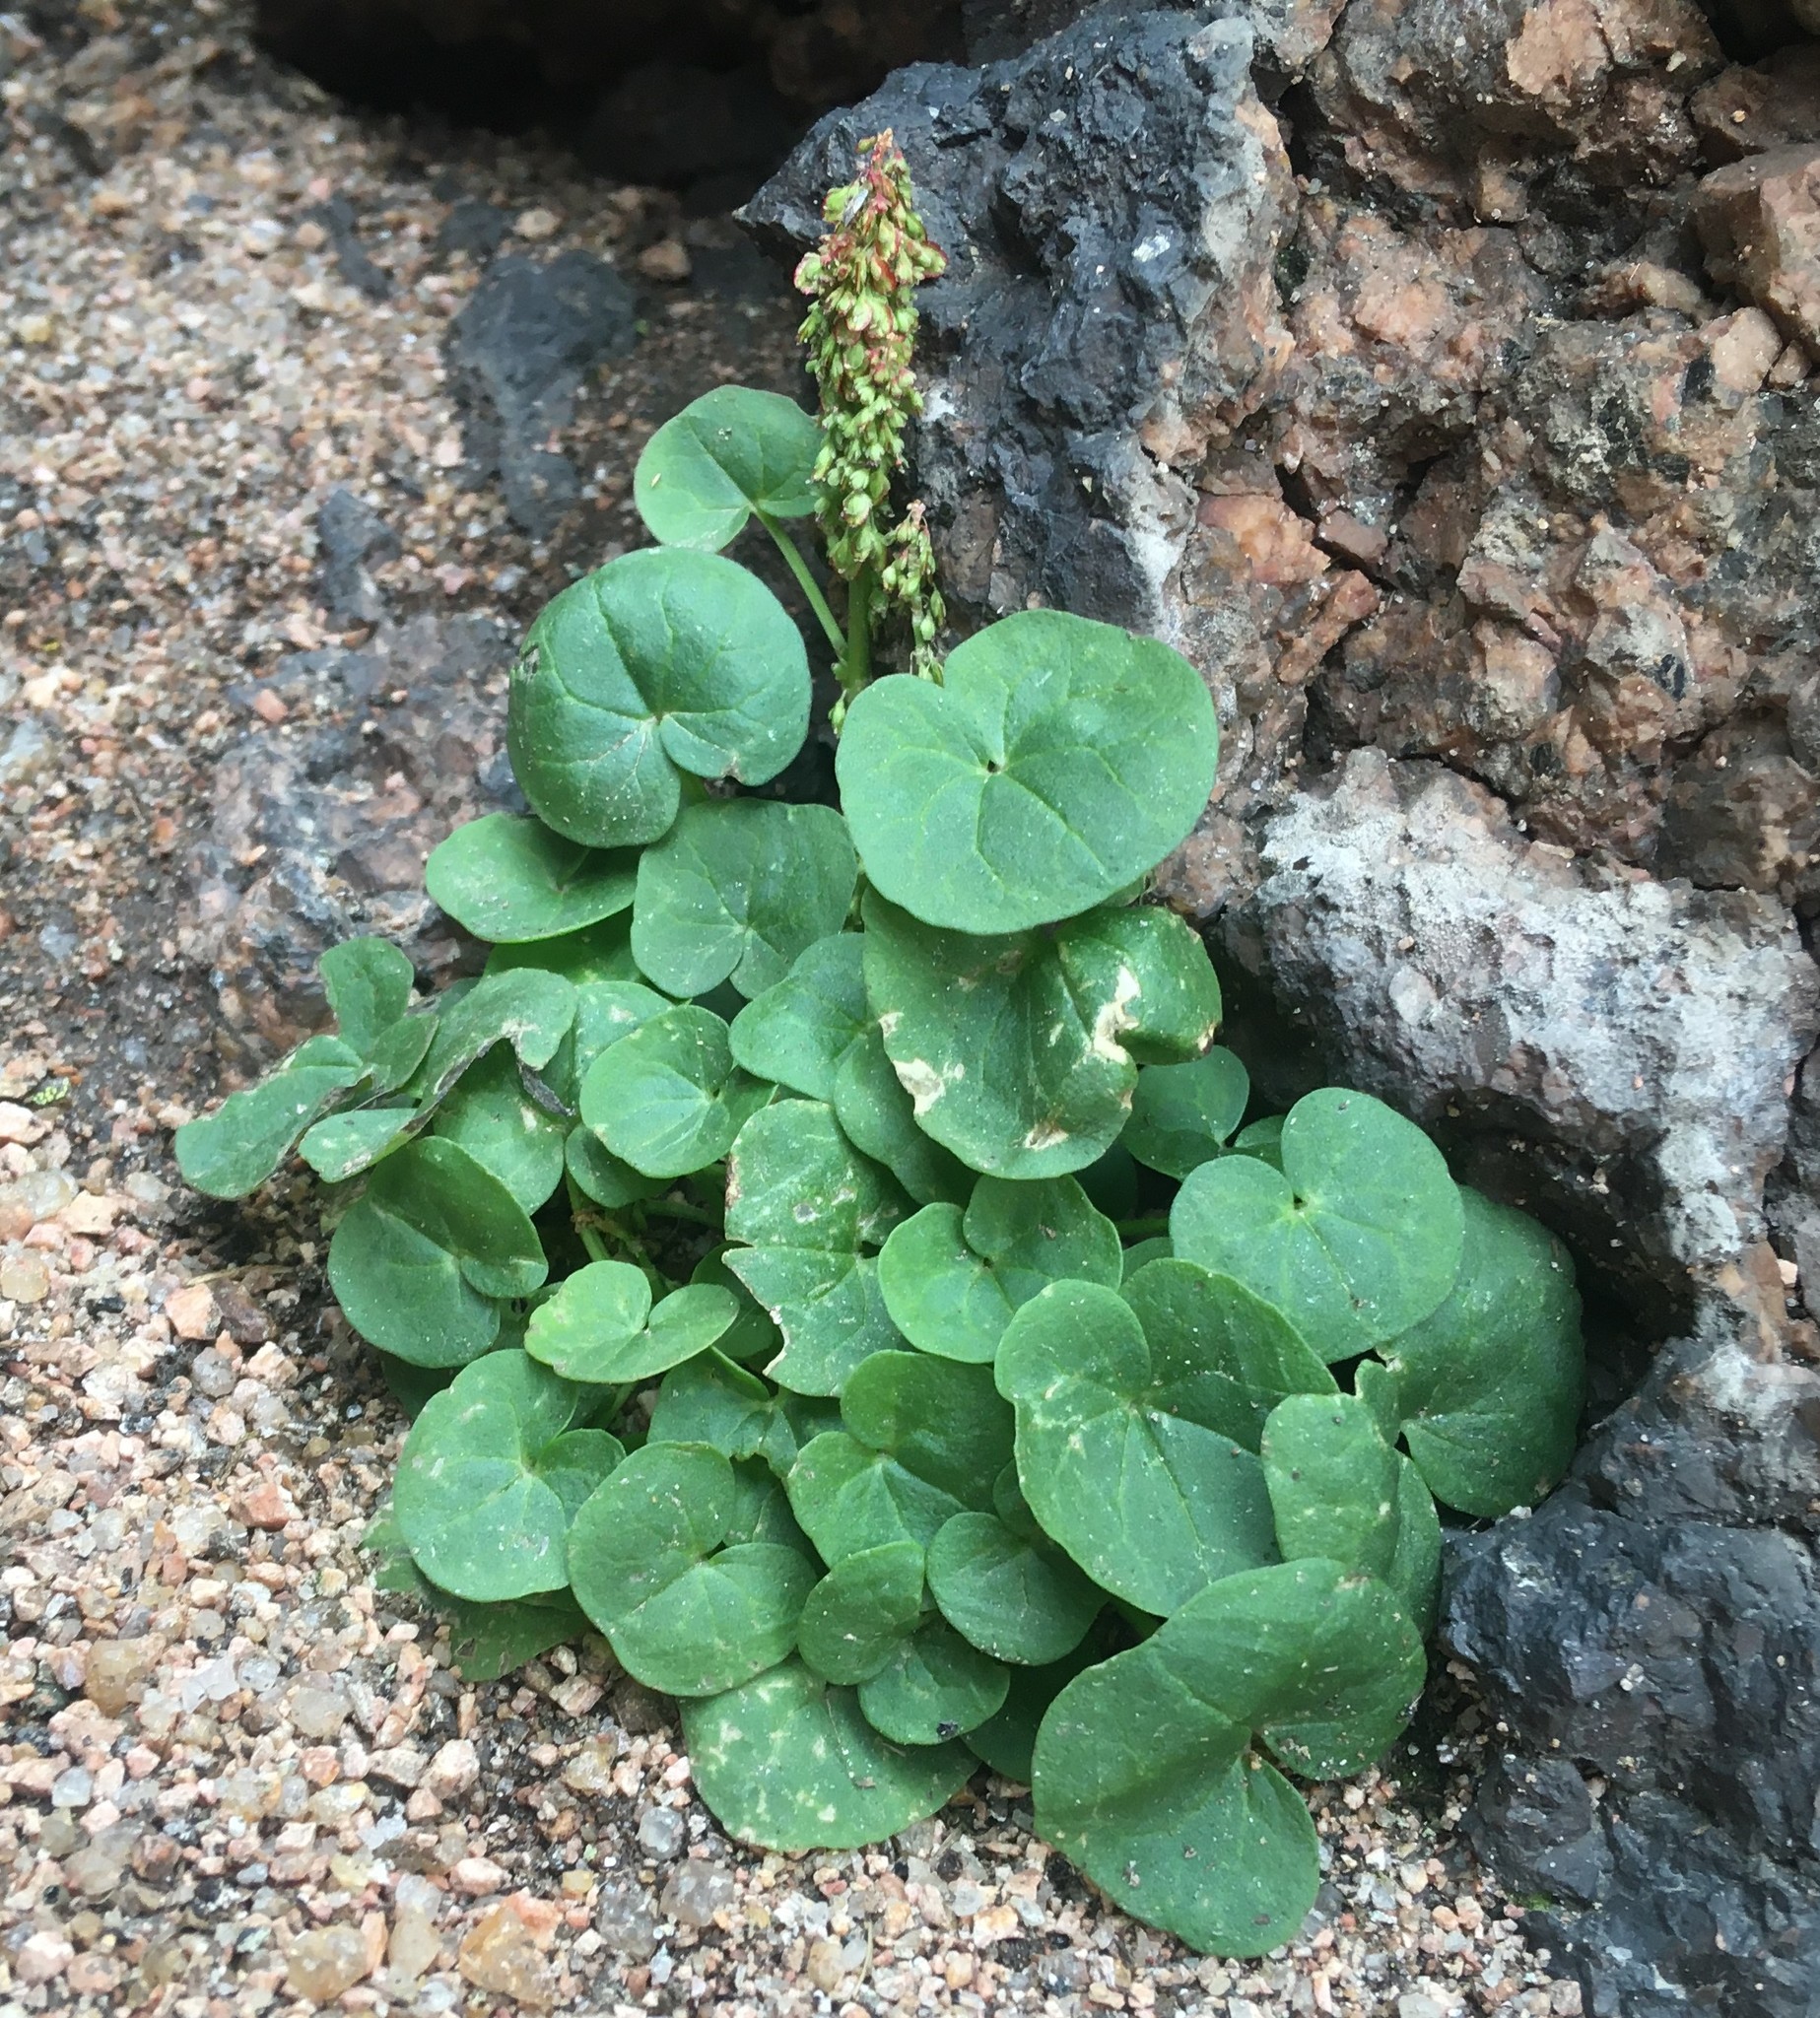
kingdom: Plantae
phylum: Tracheophyta
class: Magnoliopsida
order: Caryophyllales
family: Polygonaceae
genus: Oxyria
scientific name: Oxyria digyna
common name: Alpine mountain-sorrel
